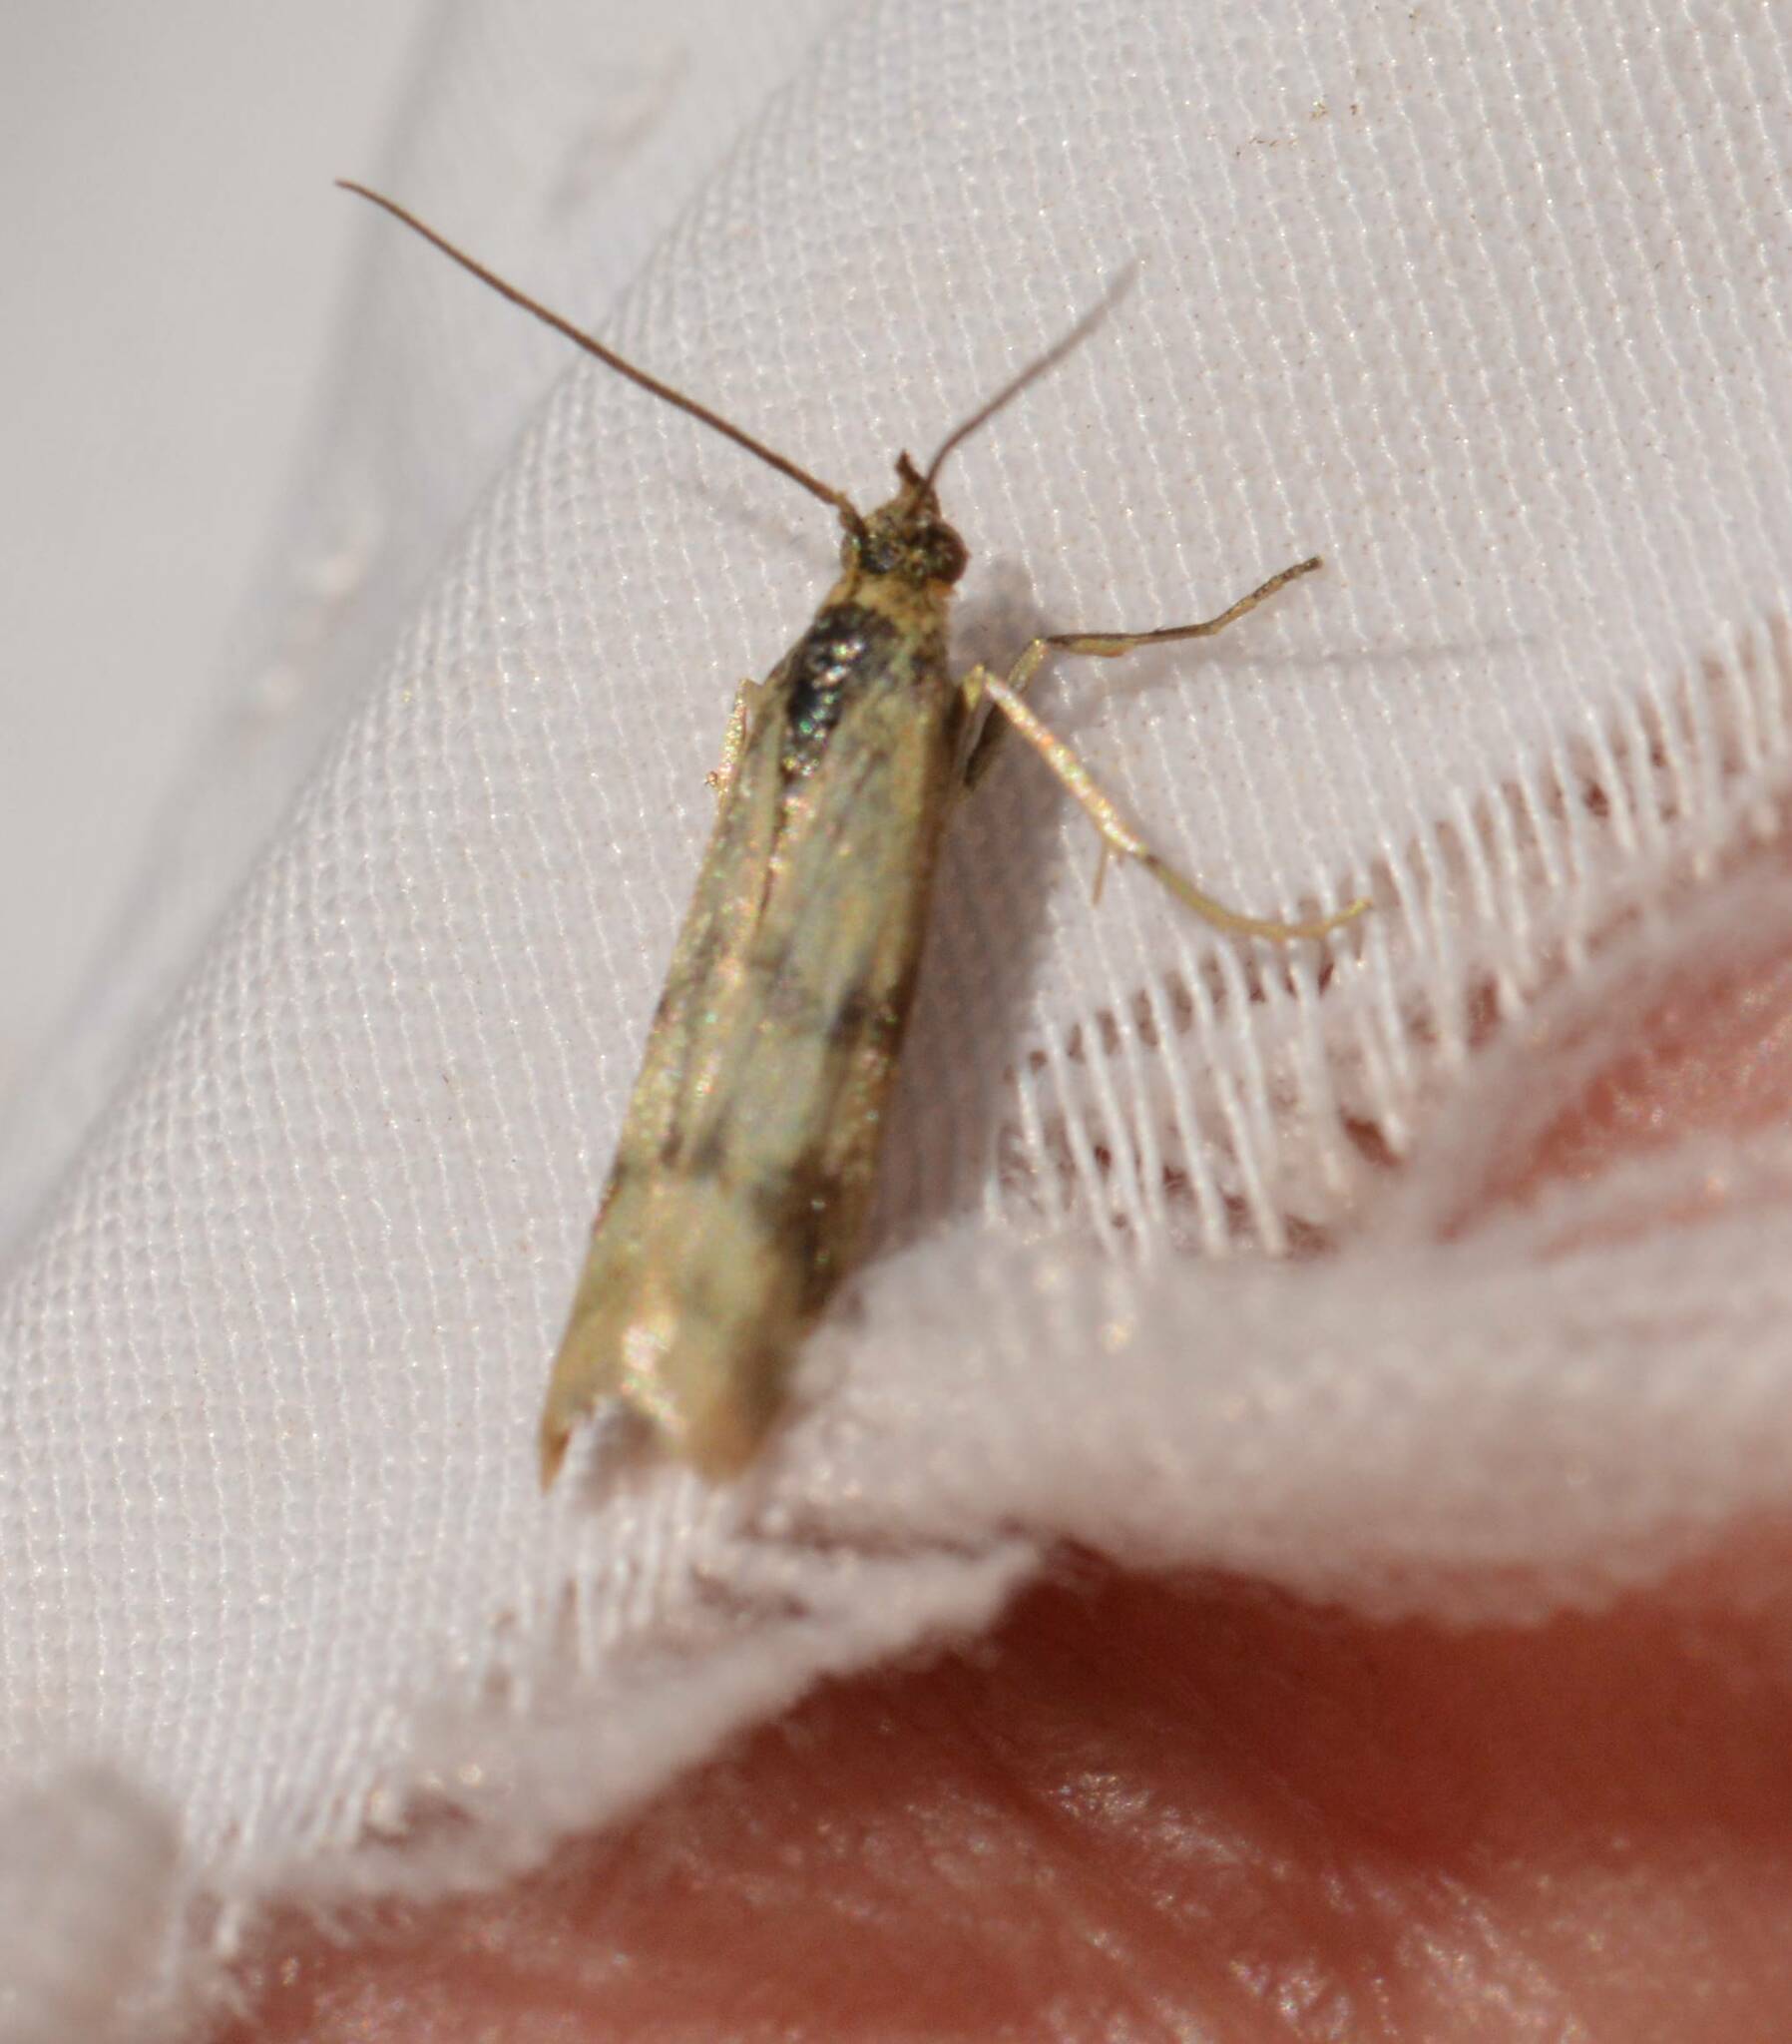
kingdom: Animalia
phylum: Arthropoda
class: Insecta
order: Lepidoptera
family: Pyralidae
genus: Homoeosoma
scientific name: Homoeosoma sinuella
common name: Twin-barred knot-horn
